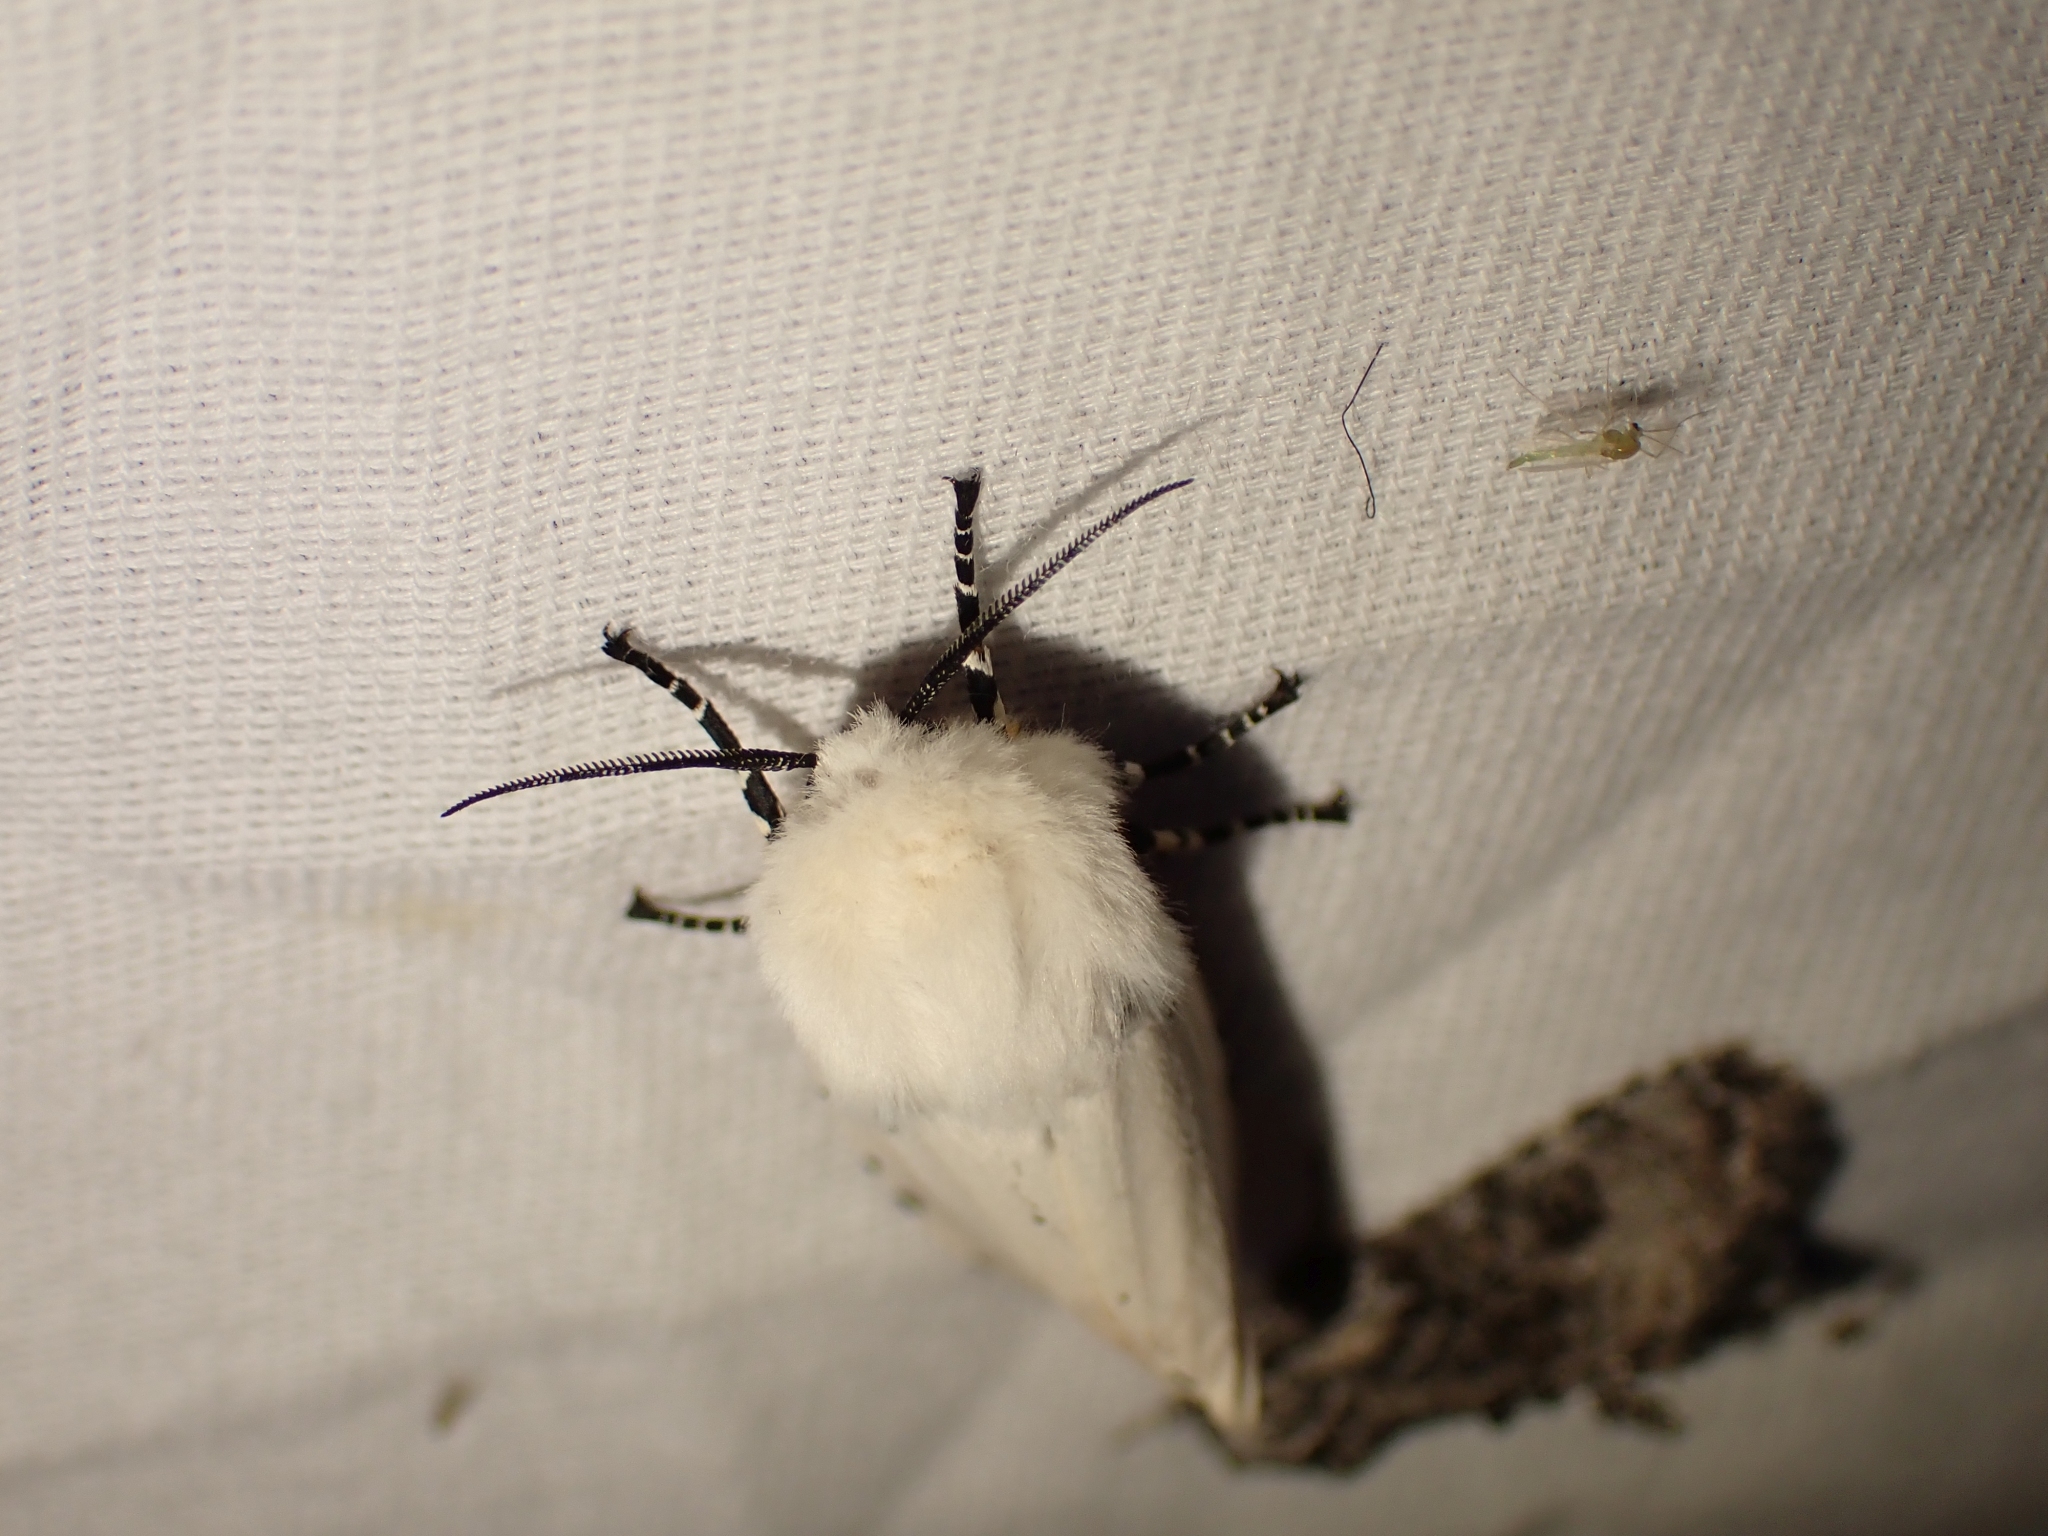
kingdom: Animalia
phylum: Arthropoda
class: Insecta
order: Lepidoptera
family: Erebidae
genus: Estigmene
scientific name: Estigmene acrea
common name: Salt marsh moth
